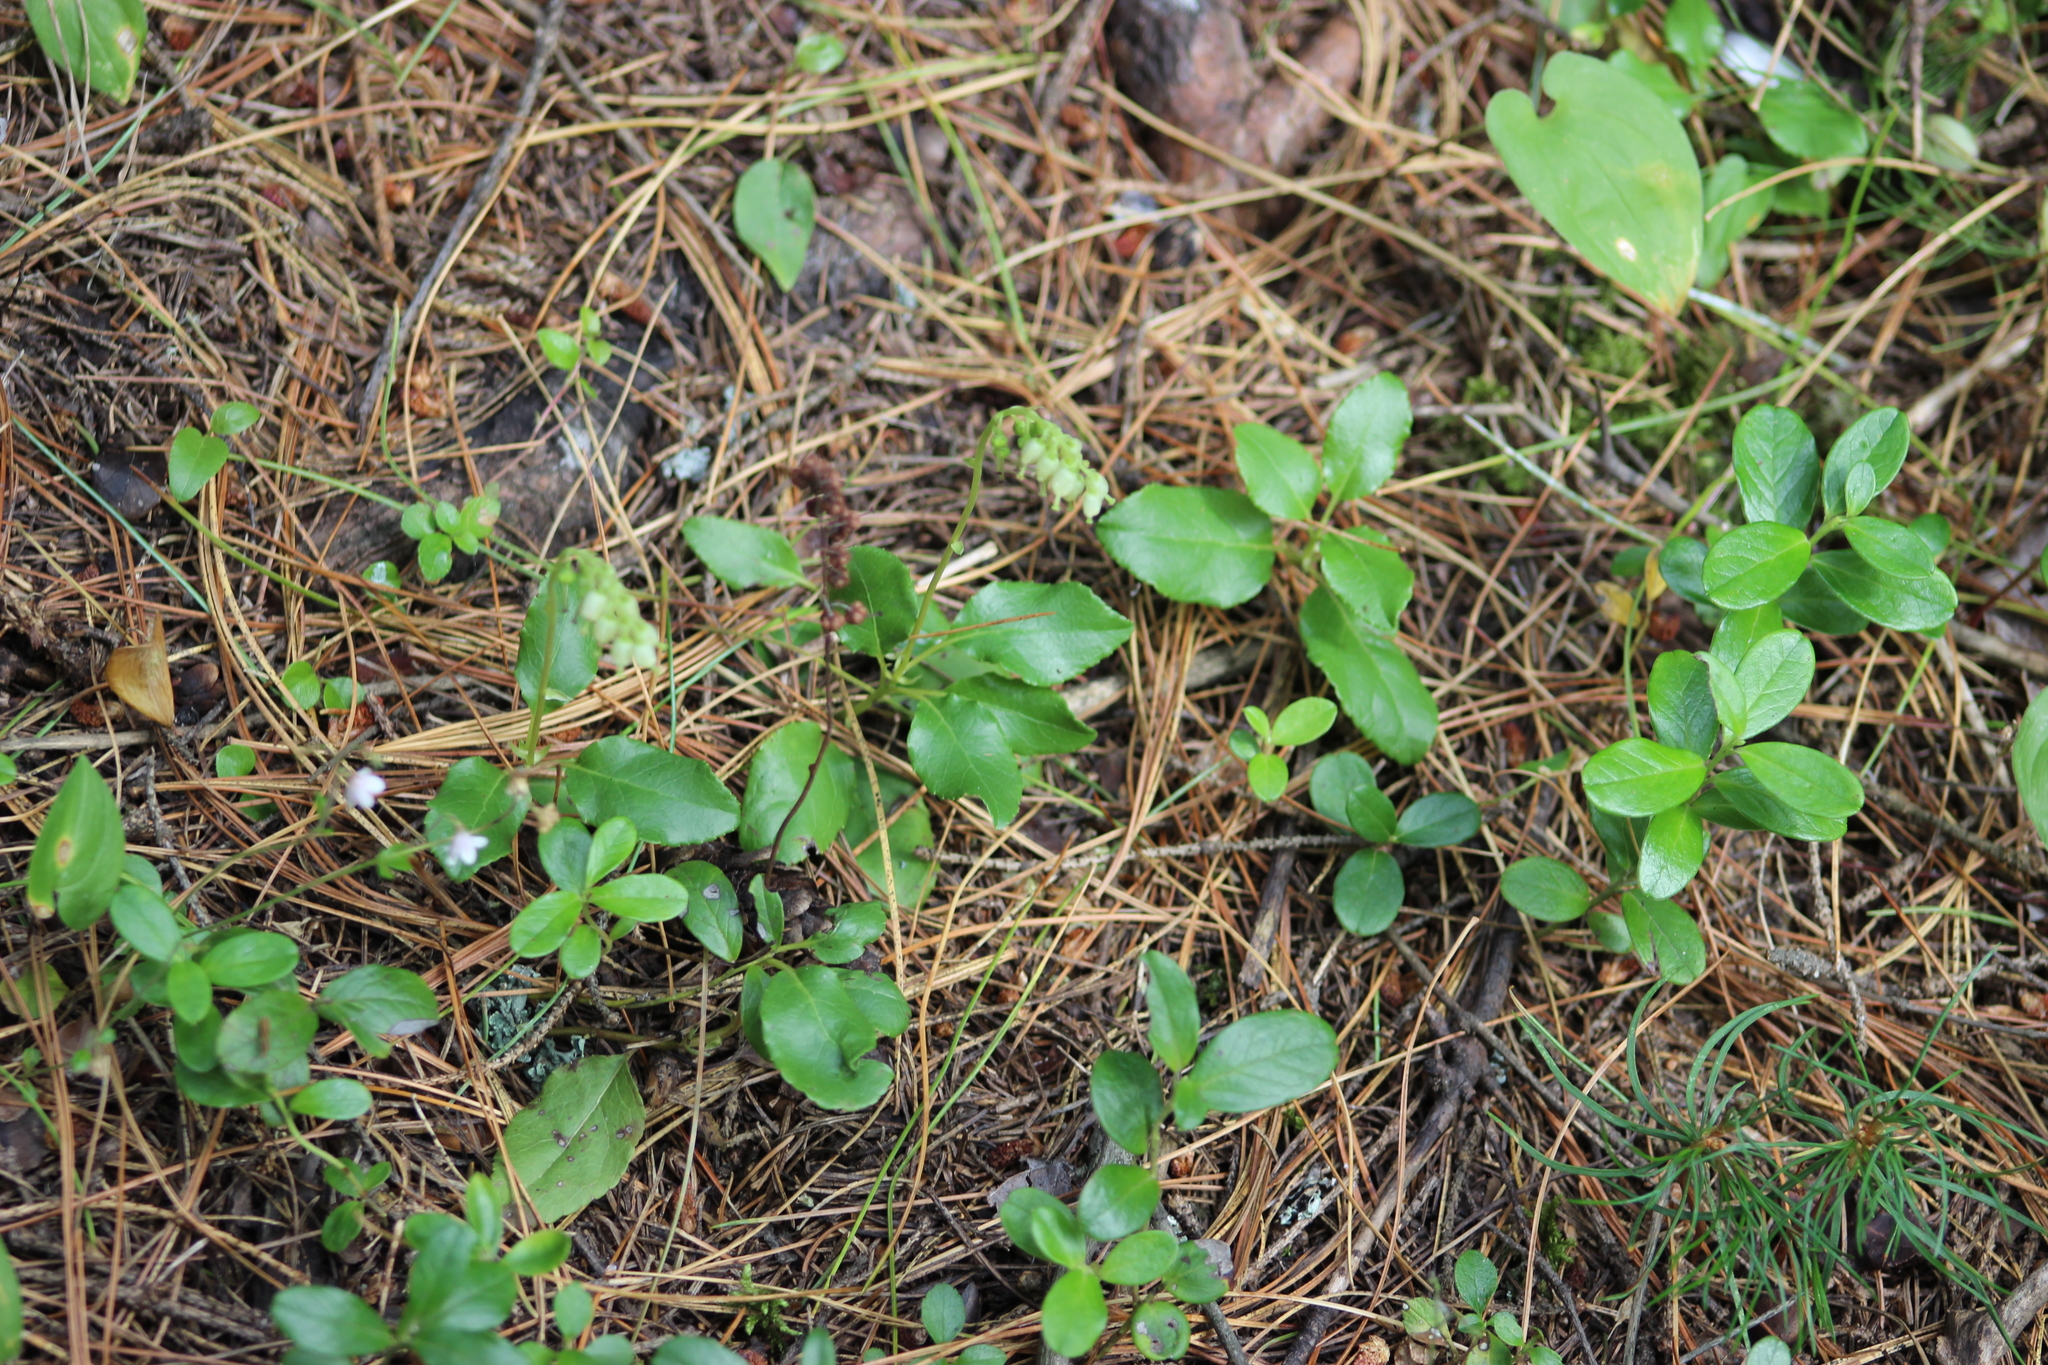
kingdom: Plantae
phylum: Tracheophyta
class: Magnoliopsida
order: Ericales
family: Ericaceae
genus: Orthilia
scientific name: Orthilia secunda
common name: One-sided orthilia
